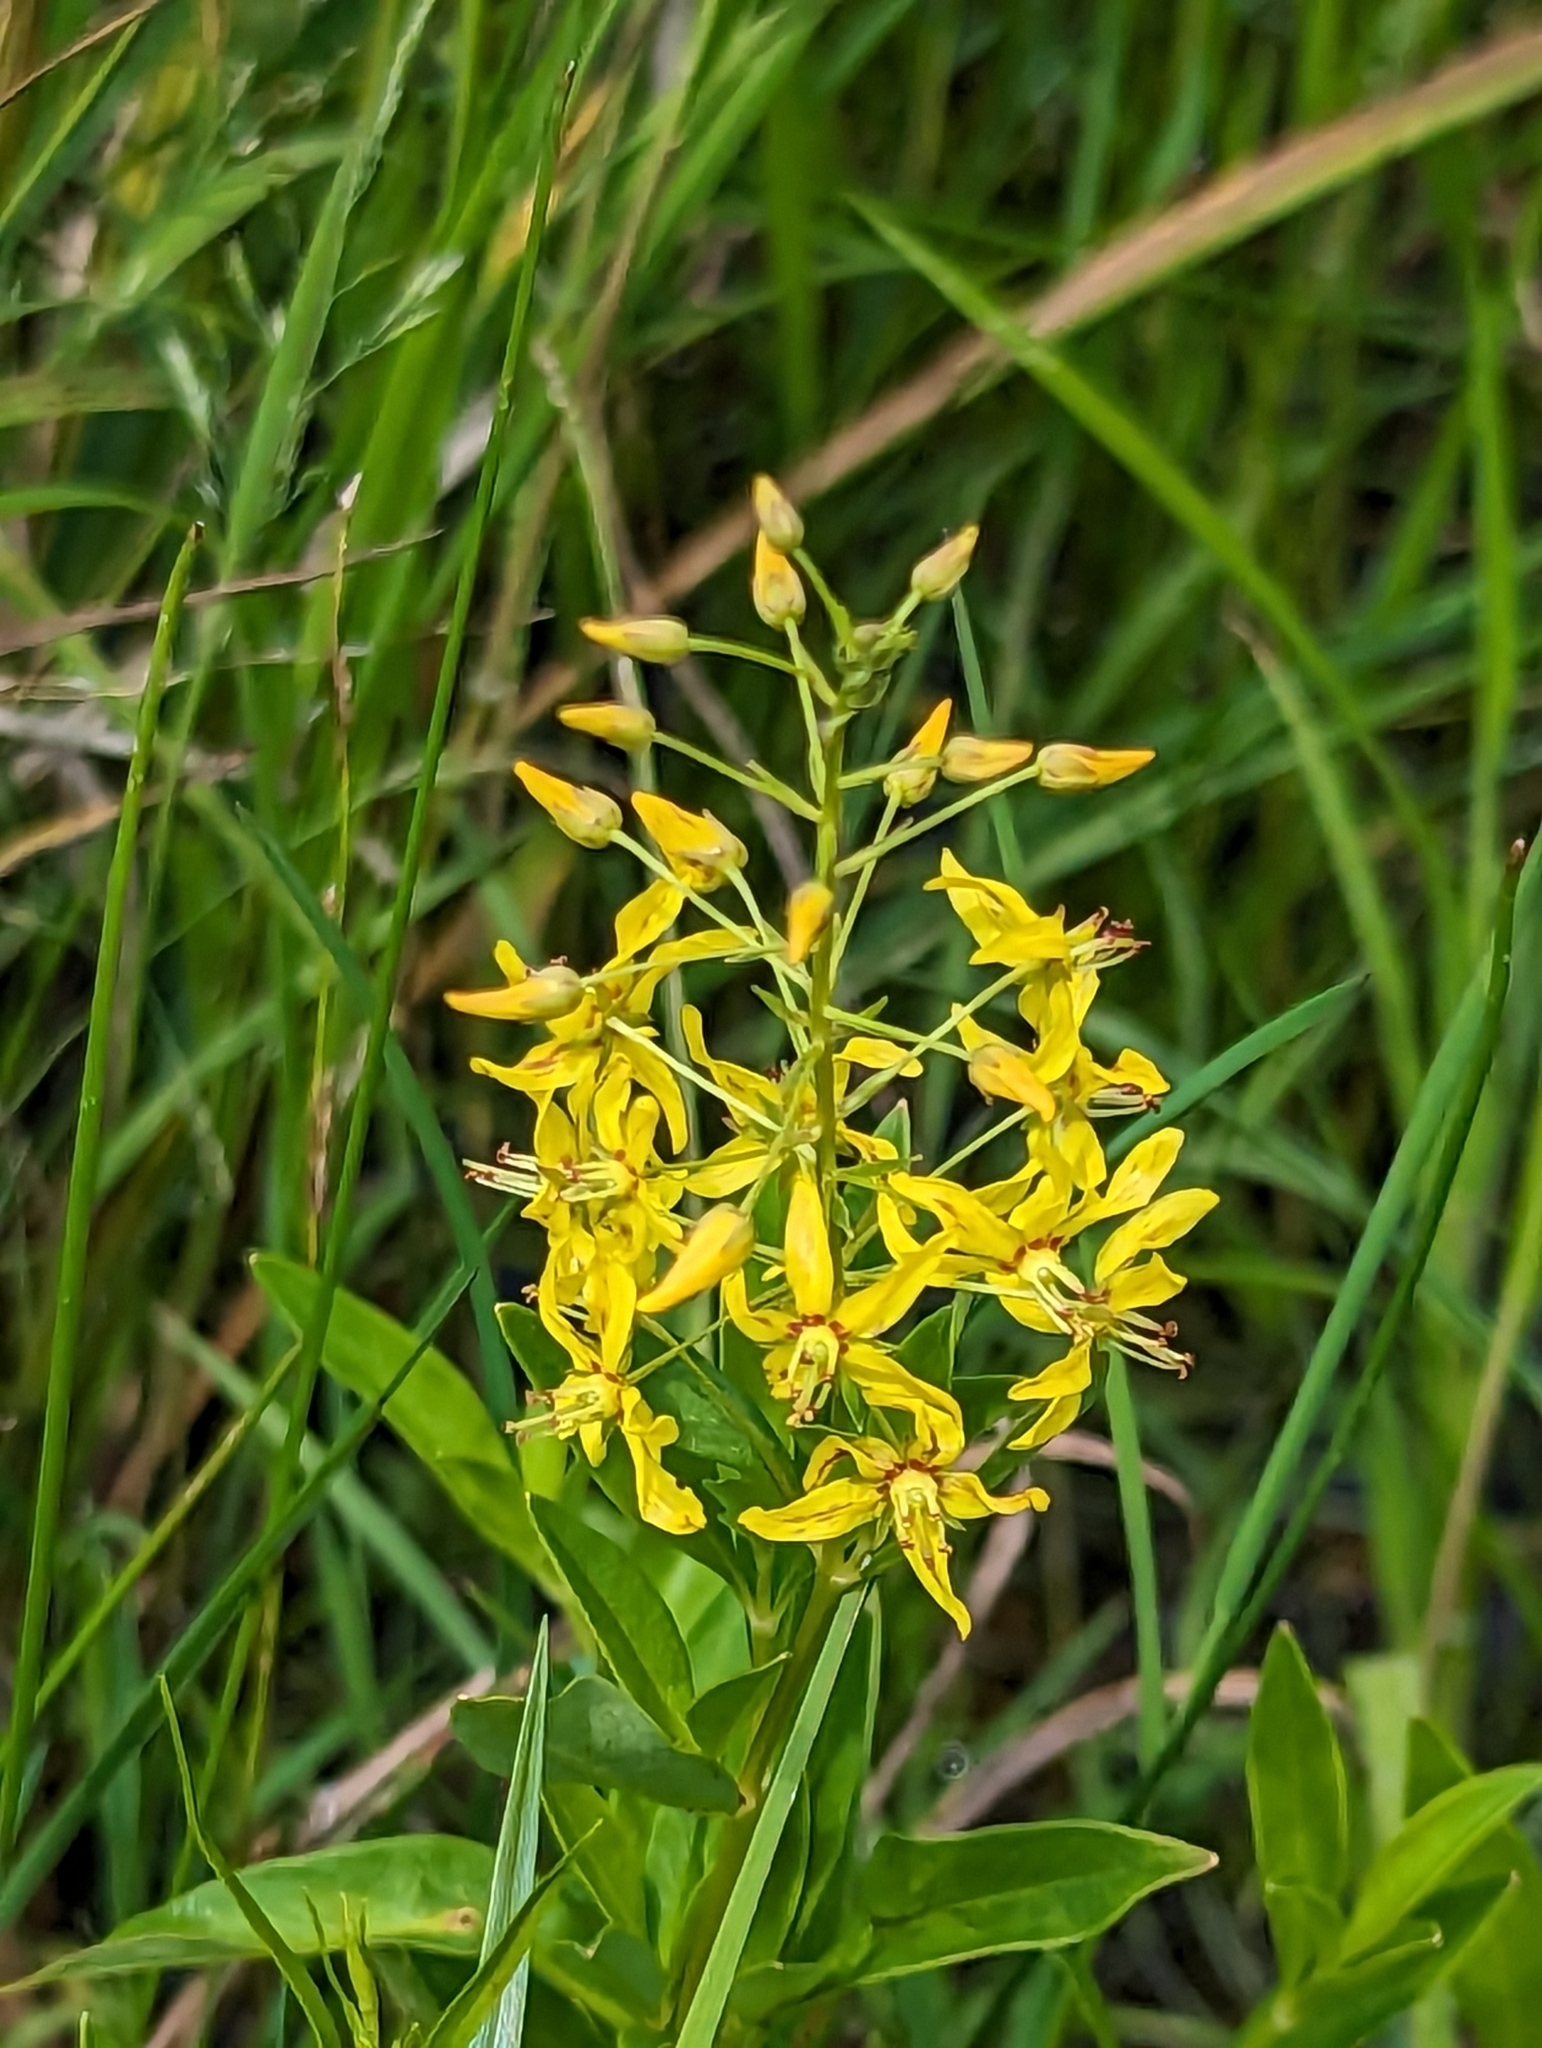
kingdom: Plantae
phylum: Tracheophyta
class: Magnoliopsida
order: Ericales
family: Primulaceae
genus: Lysimachia
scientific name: Lysimachia terrestris
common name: Lake loosestrife
